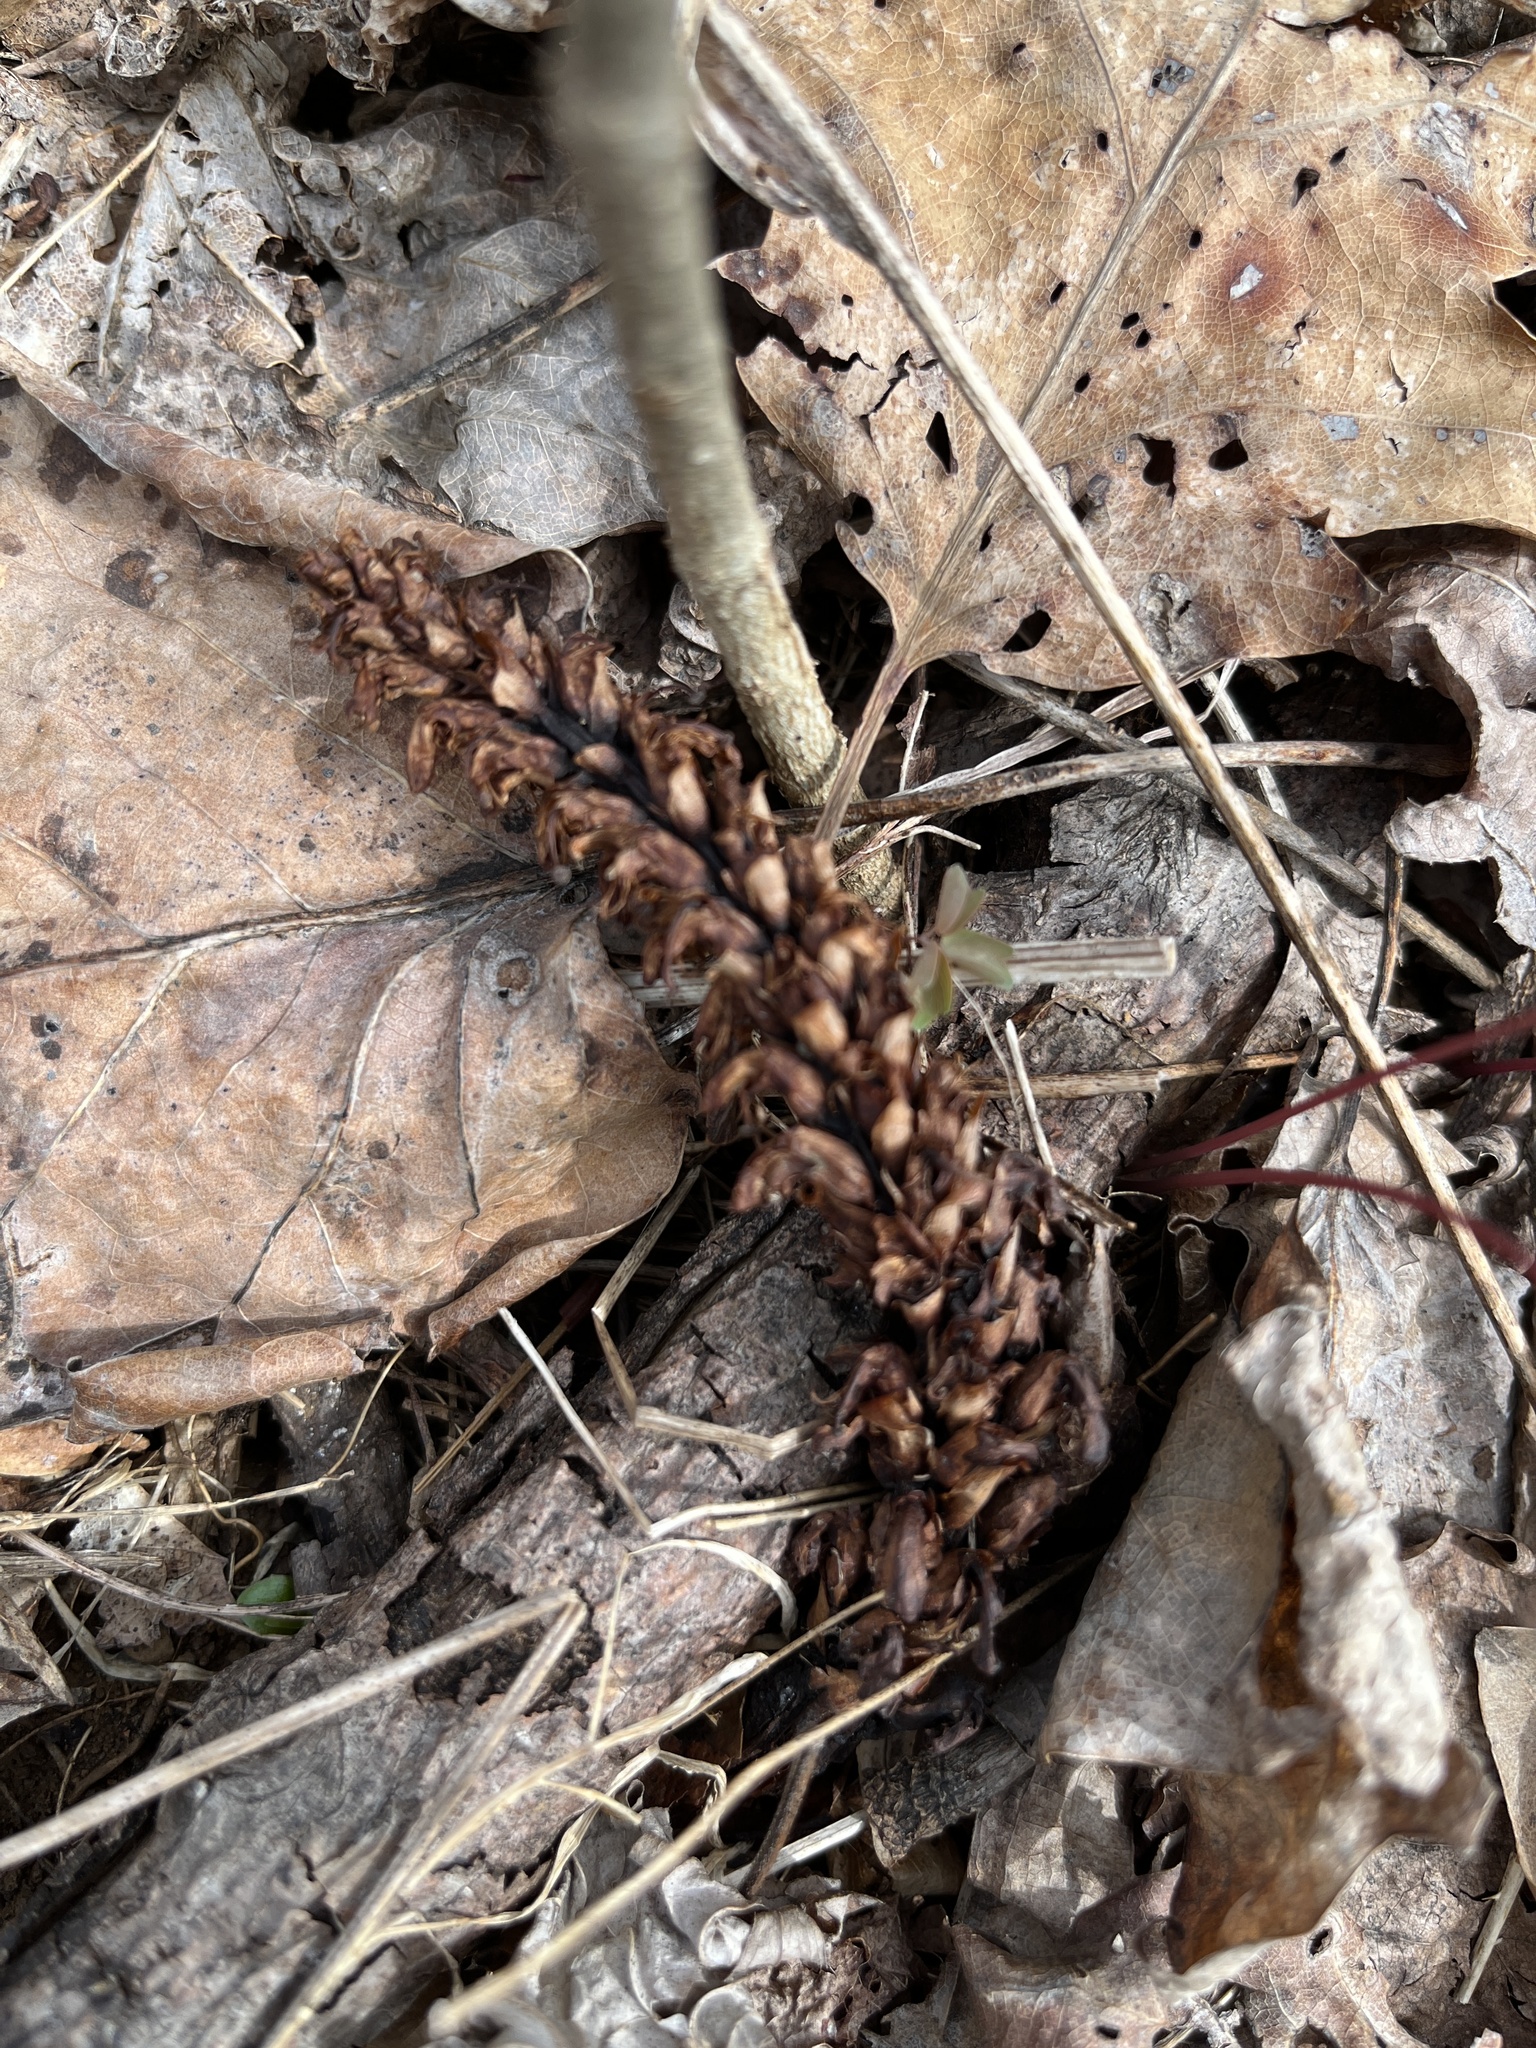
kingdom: Plantae
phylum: Tracheophyta
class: Magnoliopsida
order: Lamiales
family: Orobanchaceae
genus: Conopholis
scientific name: Conopholis americana
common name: American cancer-root
